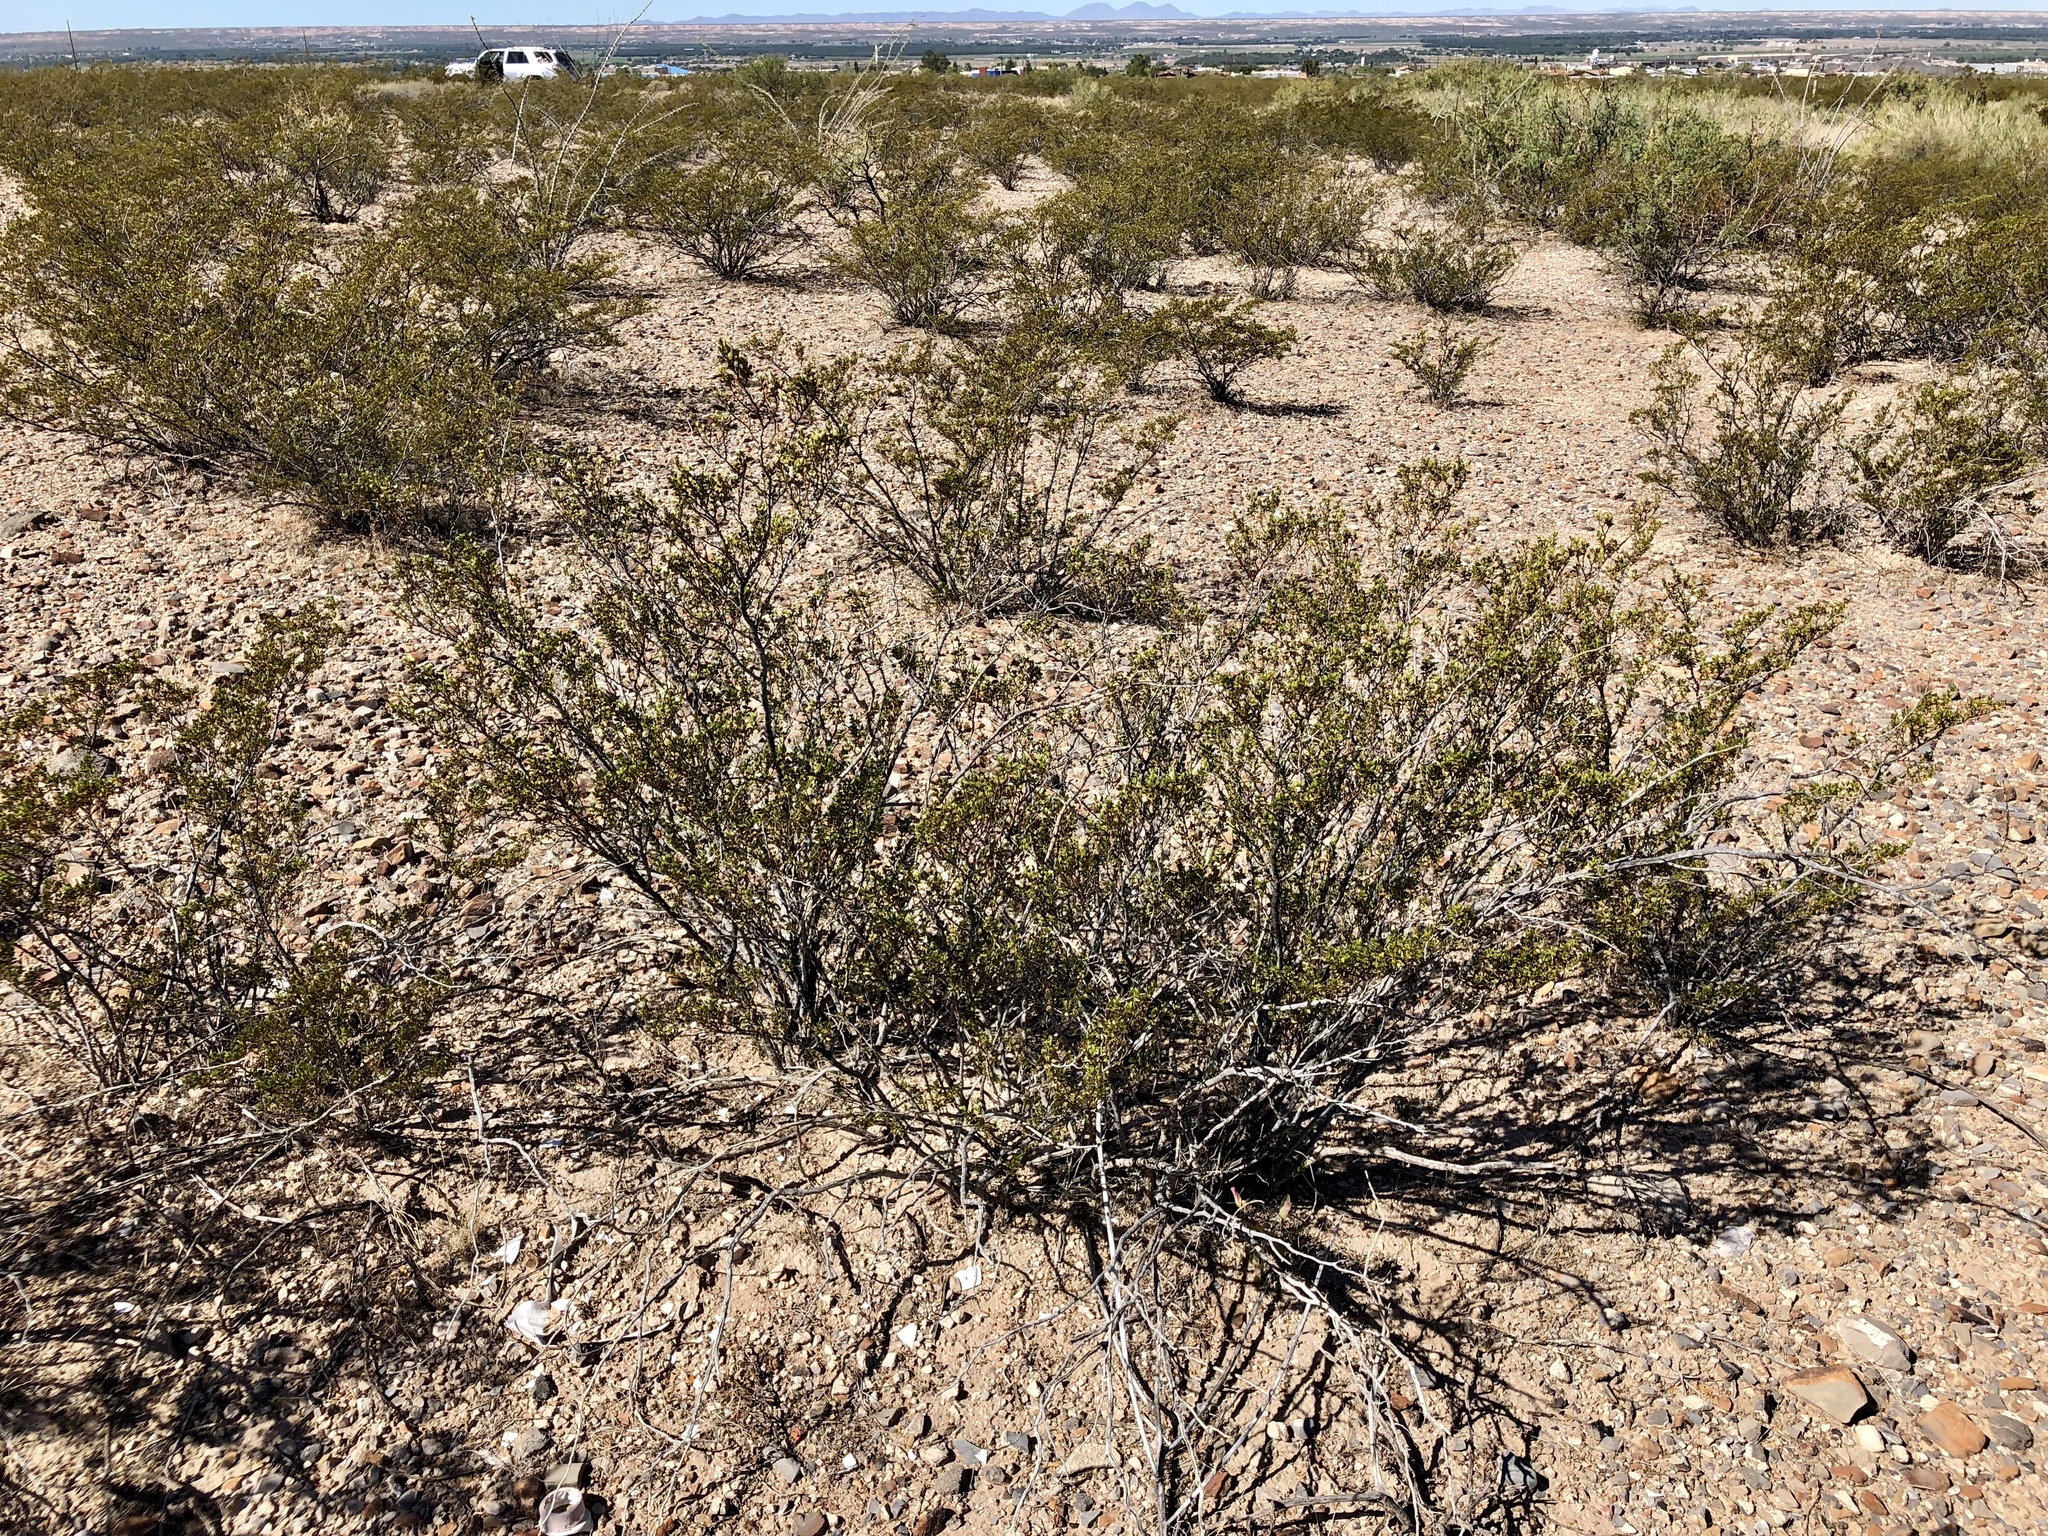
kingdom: Plantae
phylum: Tracheophyta
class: Magnoliopsida
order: Zygophyllales
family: Zygophyllaceae
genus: Larrea
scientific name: Larrea tridentata
